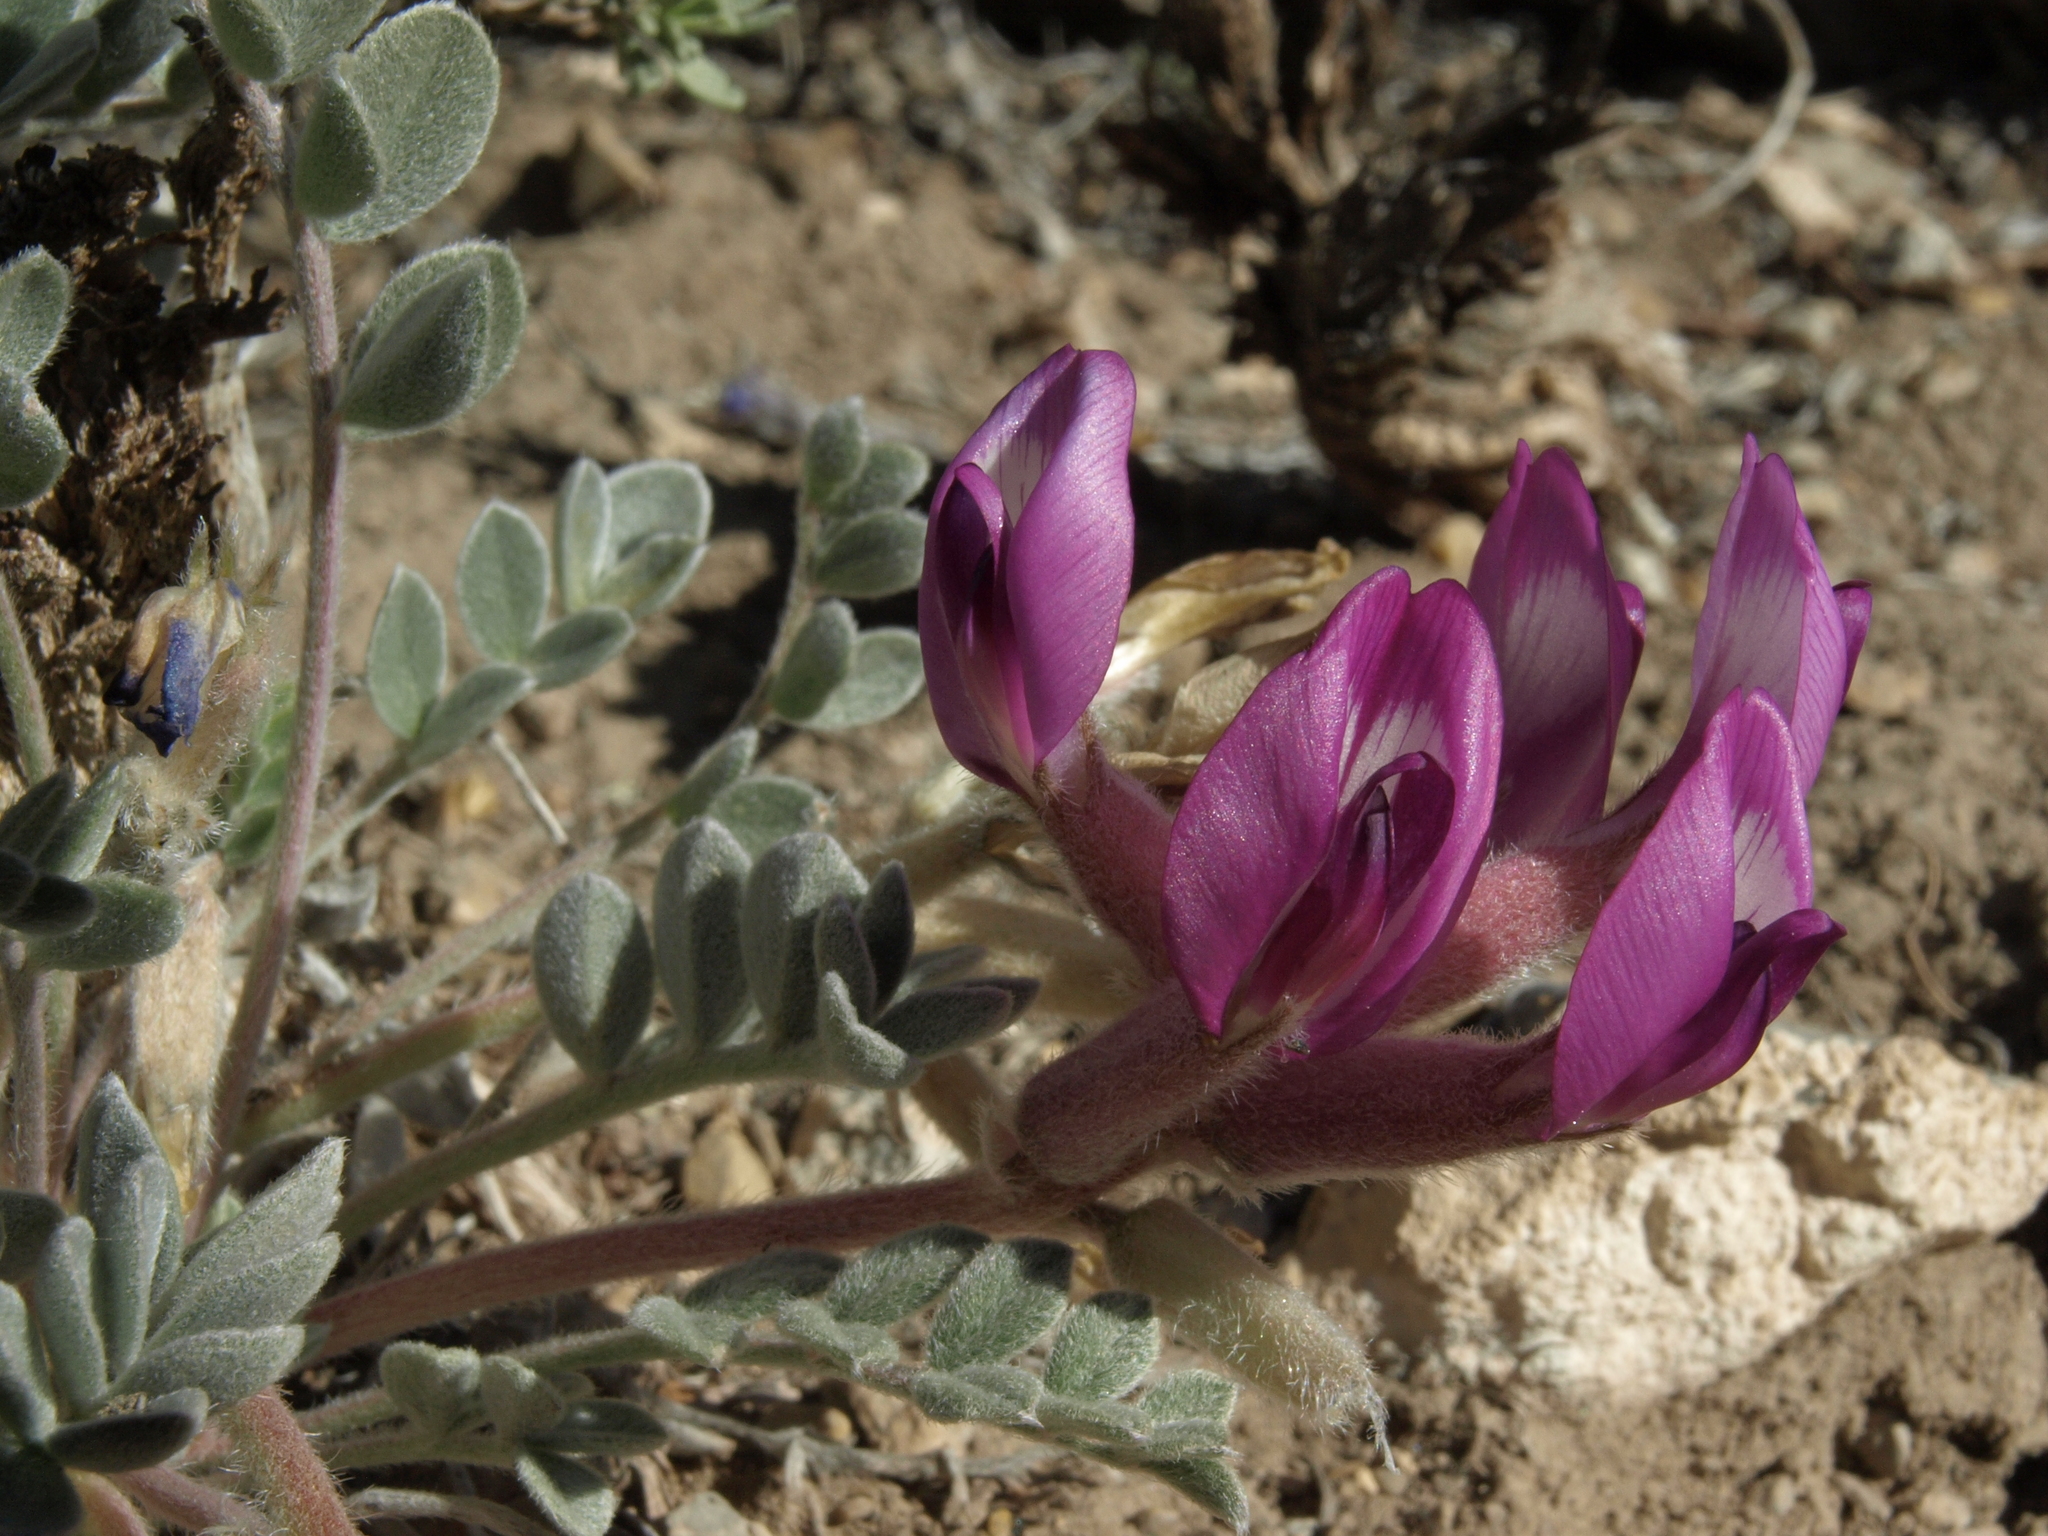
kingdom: Plantae
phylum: Tracheophyta
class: Magnoliopsida
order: Fabales
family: Fabaceae
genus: Astragalus
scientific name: Astragalus newberryi
